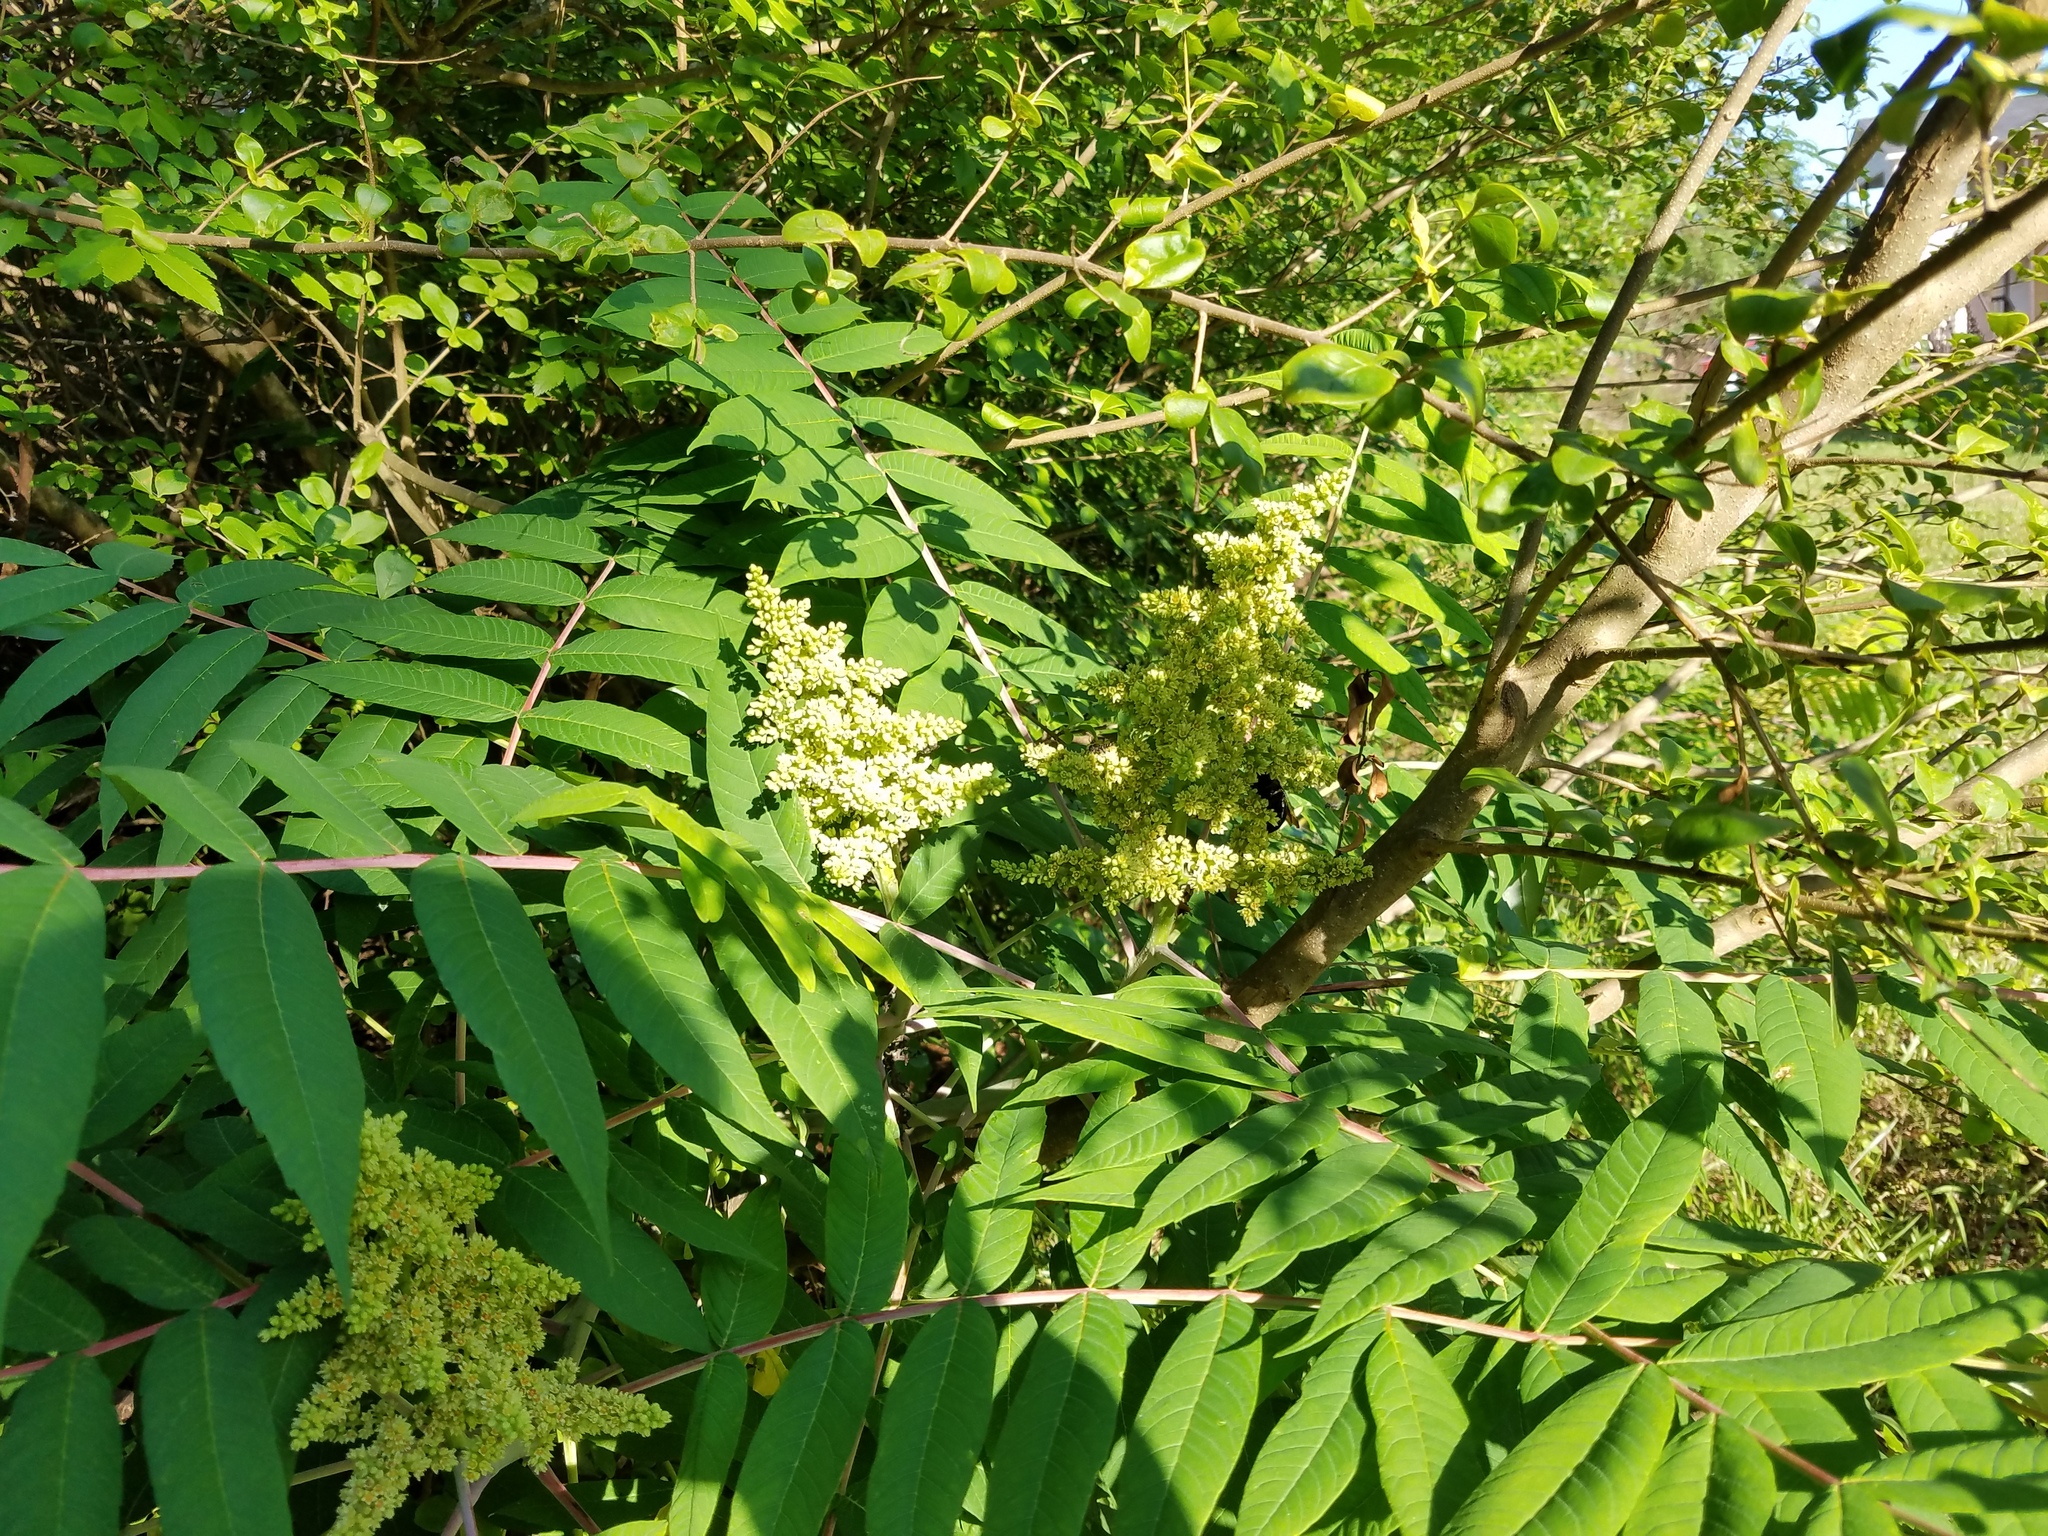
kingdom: Plantae
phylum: Tracheophyta
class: Magnoliopsida
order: Sapindales
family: Anacardiaceae
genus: Rhus
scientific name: Rhus glabra
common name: Scarlet sumac
